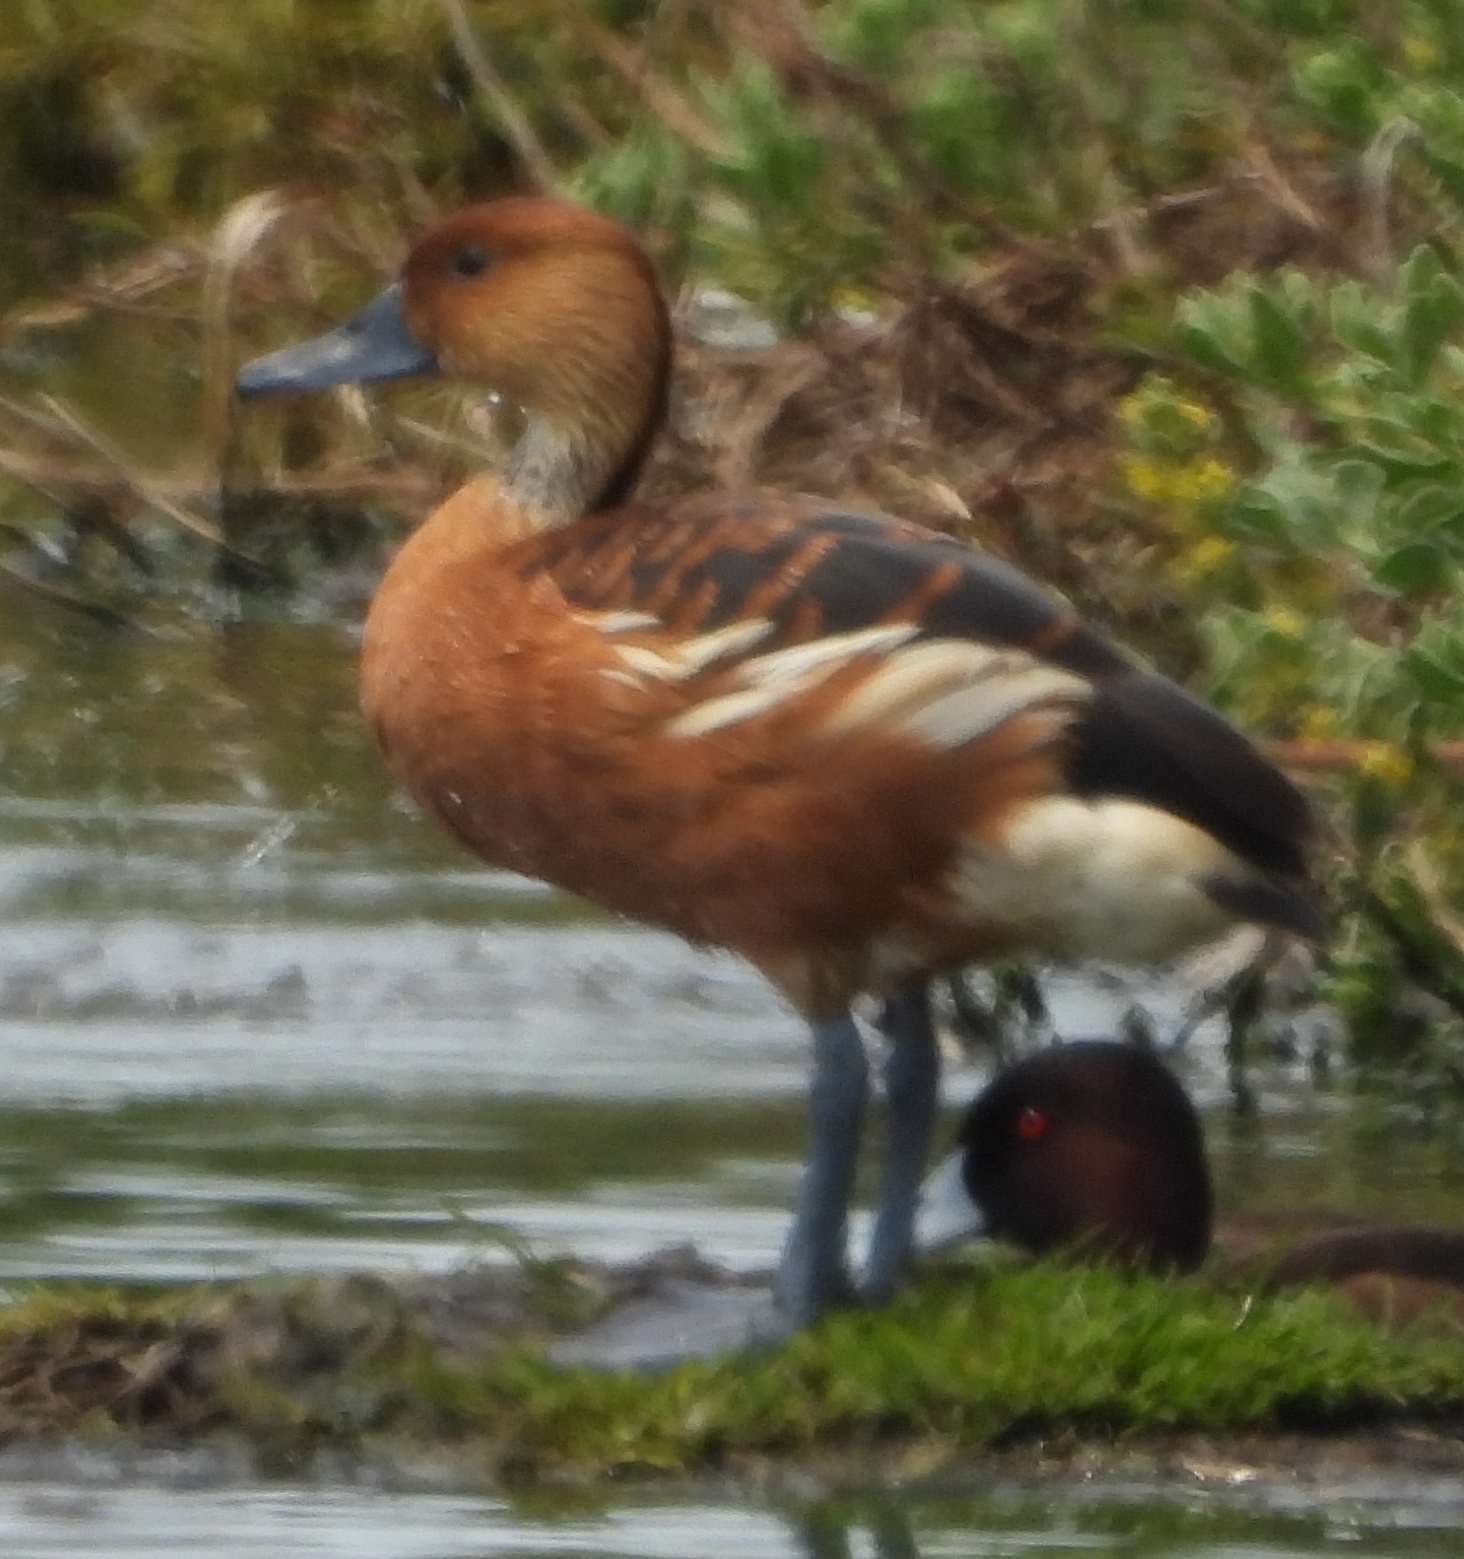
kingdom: Animalia
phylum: Chordata
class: Aves
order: Anseriformes
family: Anatidae
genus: Dendrocygna
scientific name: Dendrocygna bicolor
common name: Fulvous whistling duck
